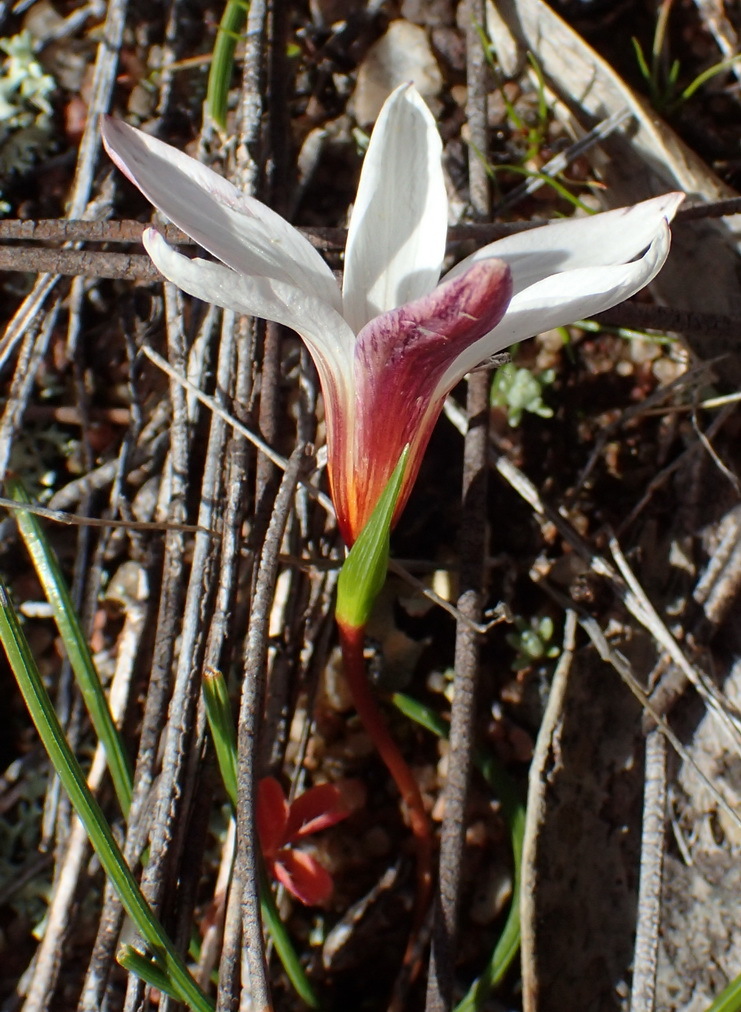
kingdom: Plantae
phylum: Tracheophyta
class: Liliopsida
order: Asparagales
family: Iridaceae
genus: Romulea
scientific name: Romulea toximontana
